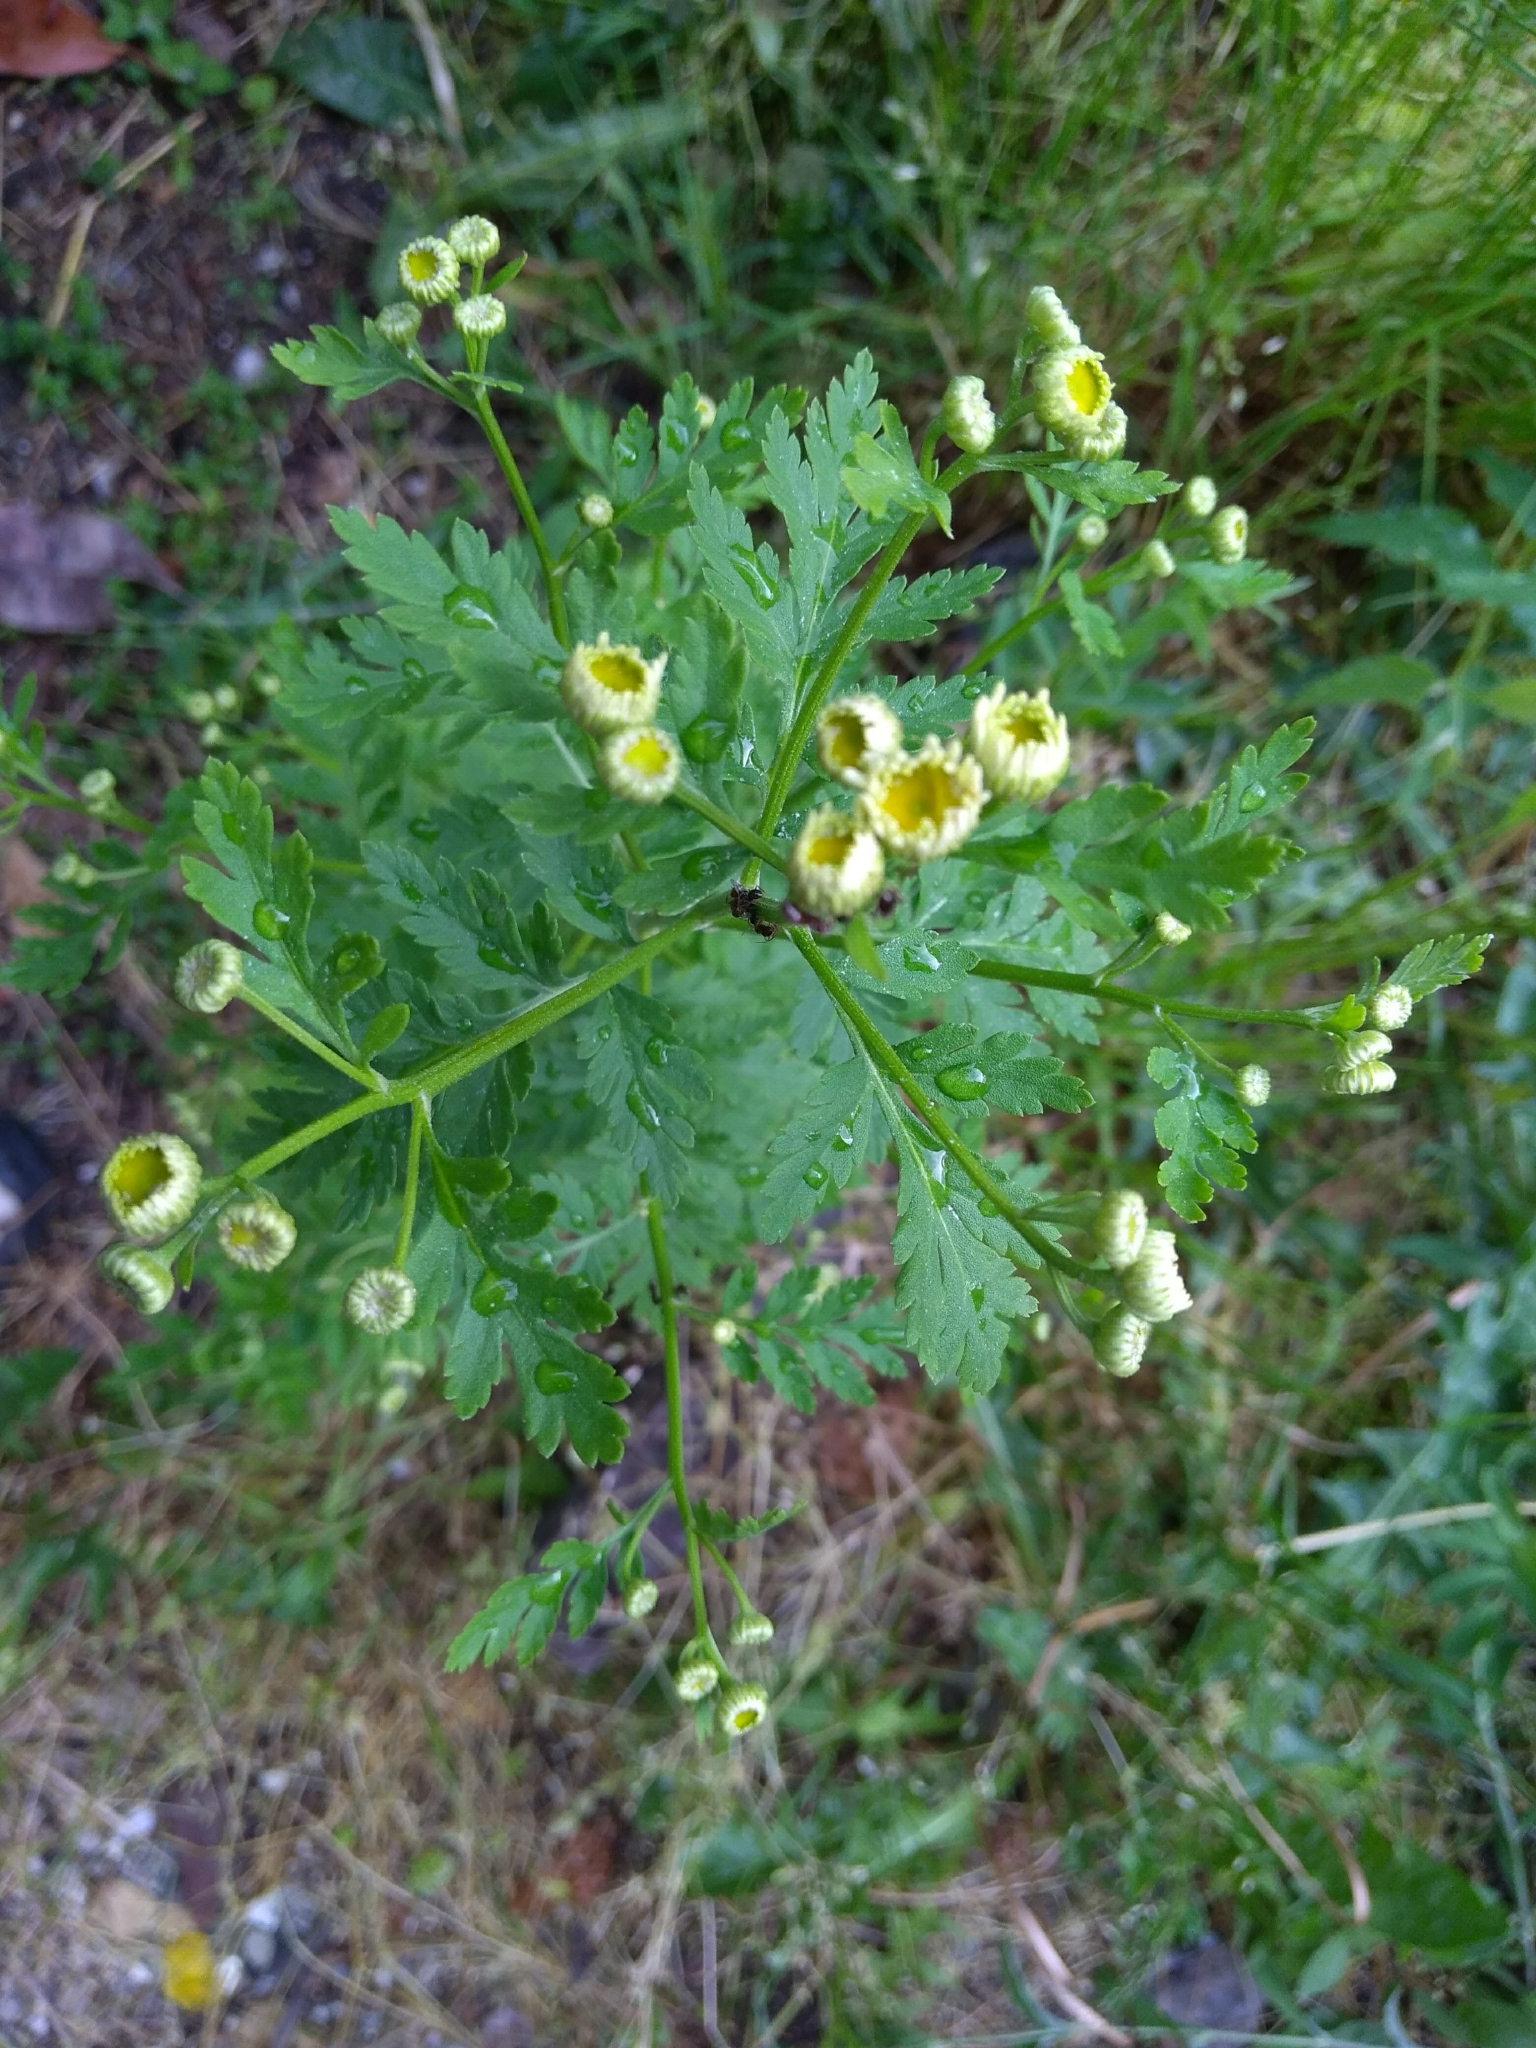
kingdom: Plantae
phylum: Tracheophyta
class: Magnoliopsida
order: Asterales
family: Asteraceae
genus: Tanacetum
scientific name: Tanacetum parthenium
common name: Feverfew
